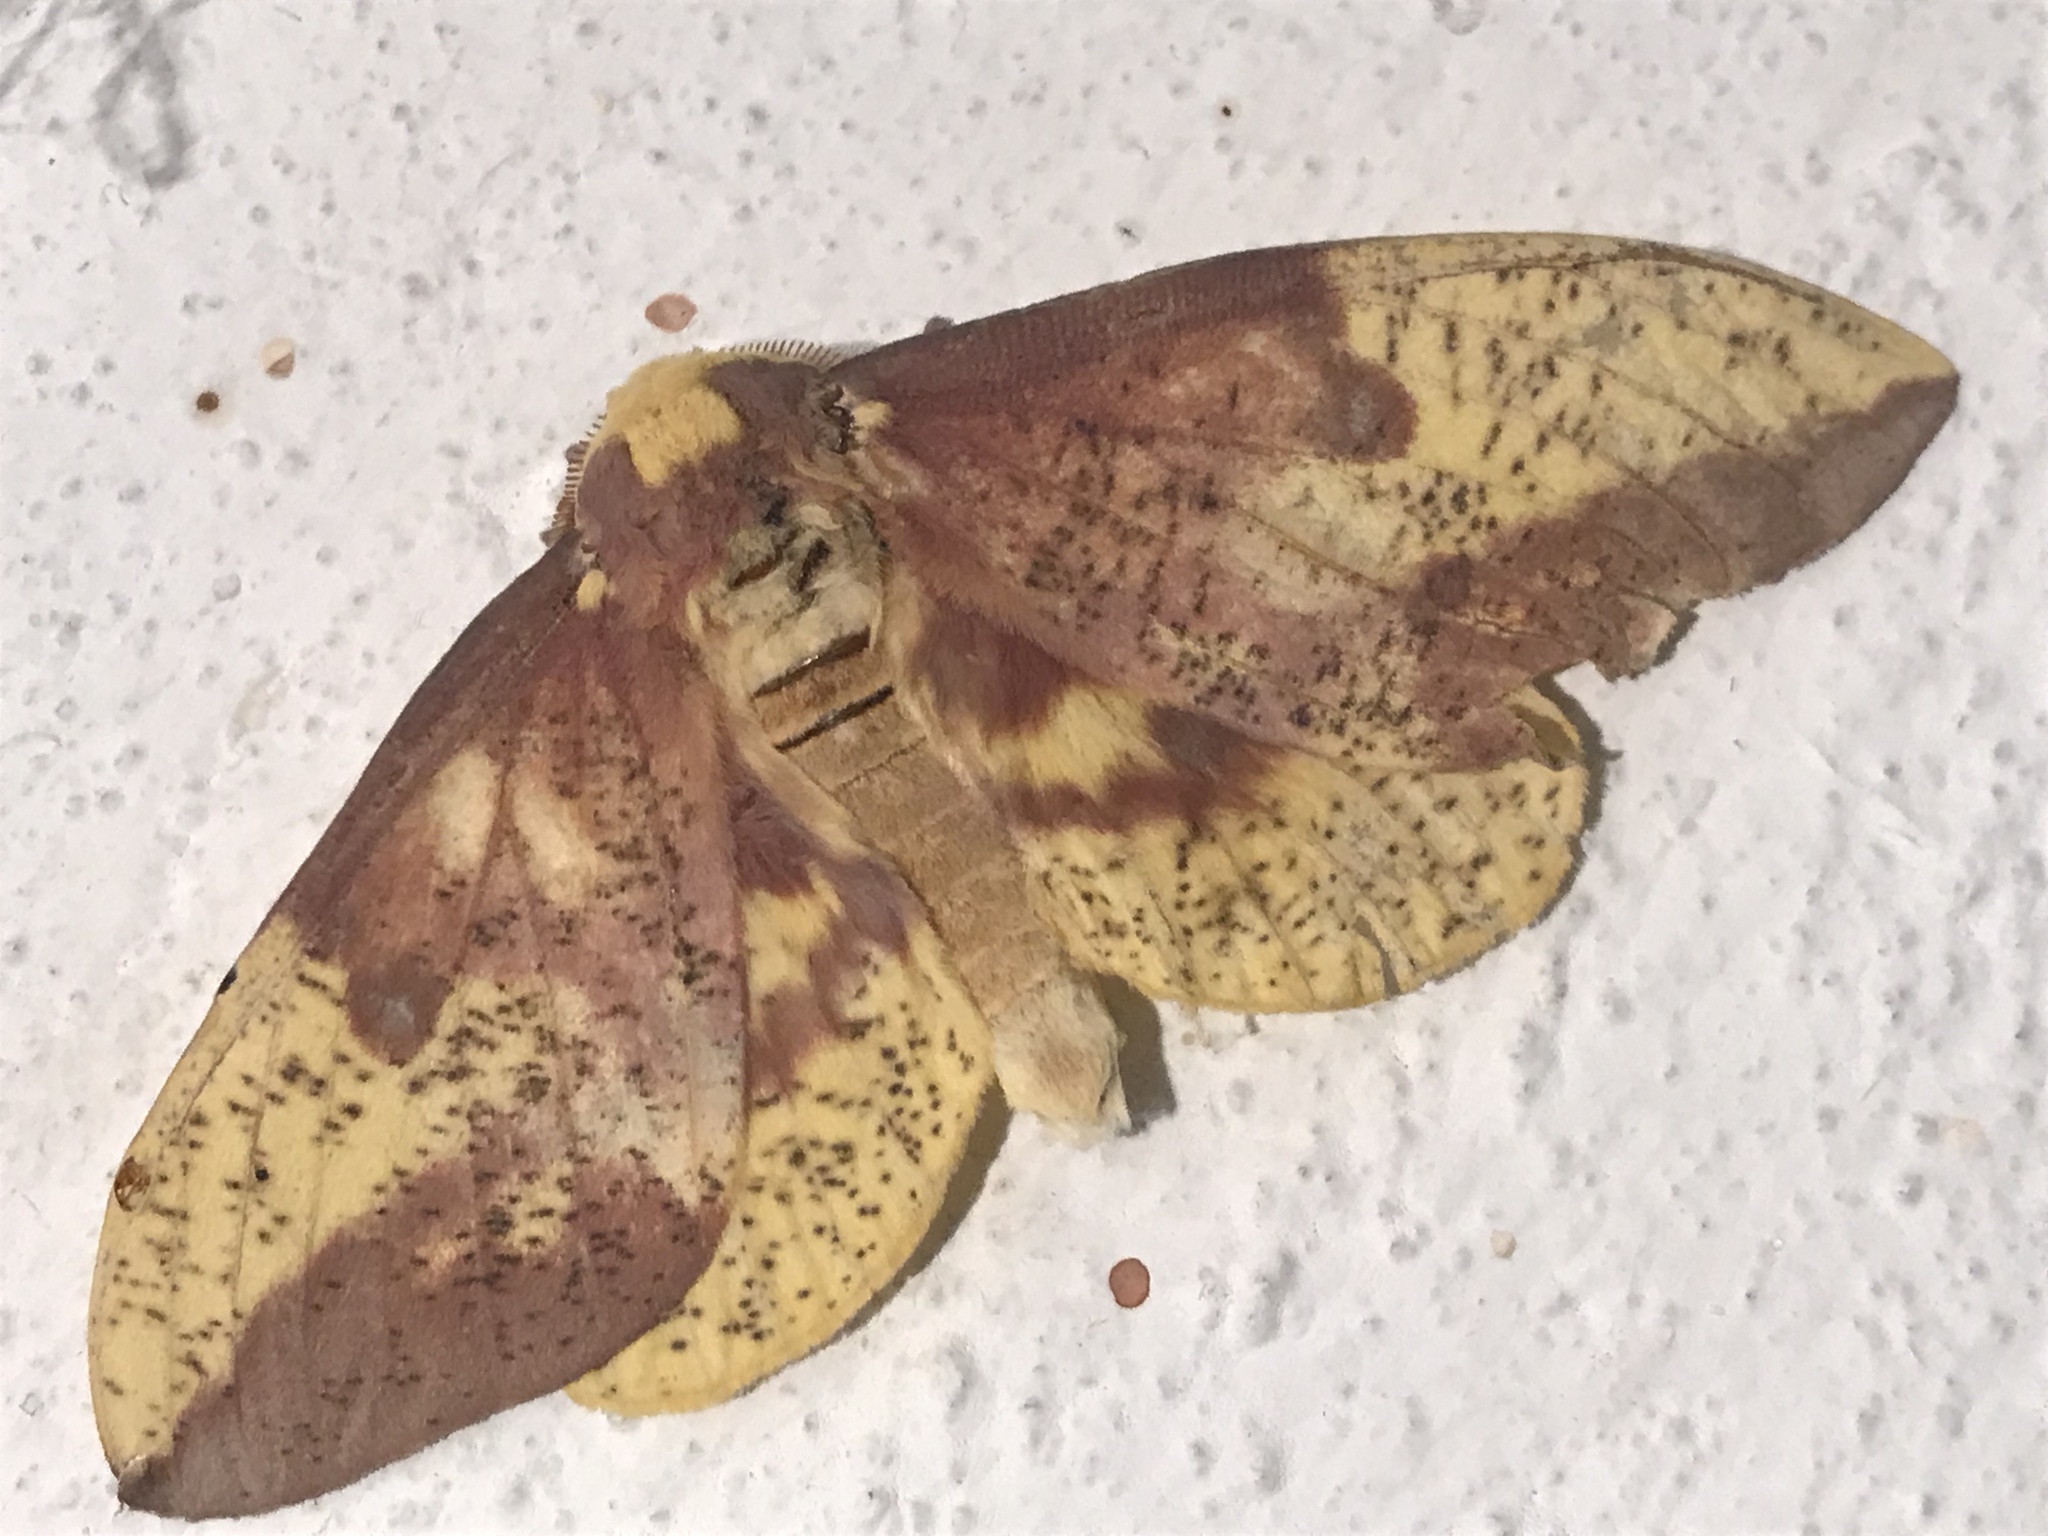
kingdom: Animalia
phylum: Arthropoda
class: Insecta
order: Lepidoptera
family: Saturniidae
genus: Eacles
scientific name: Eacles imperialis
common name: Imperial moth
